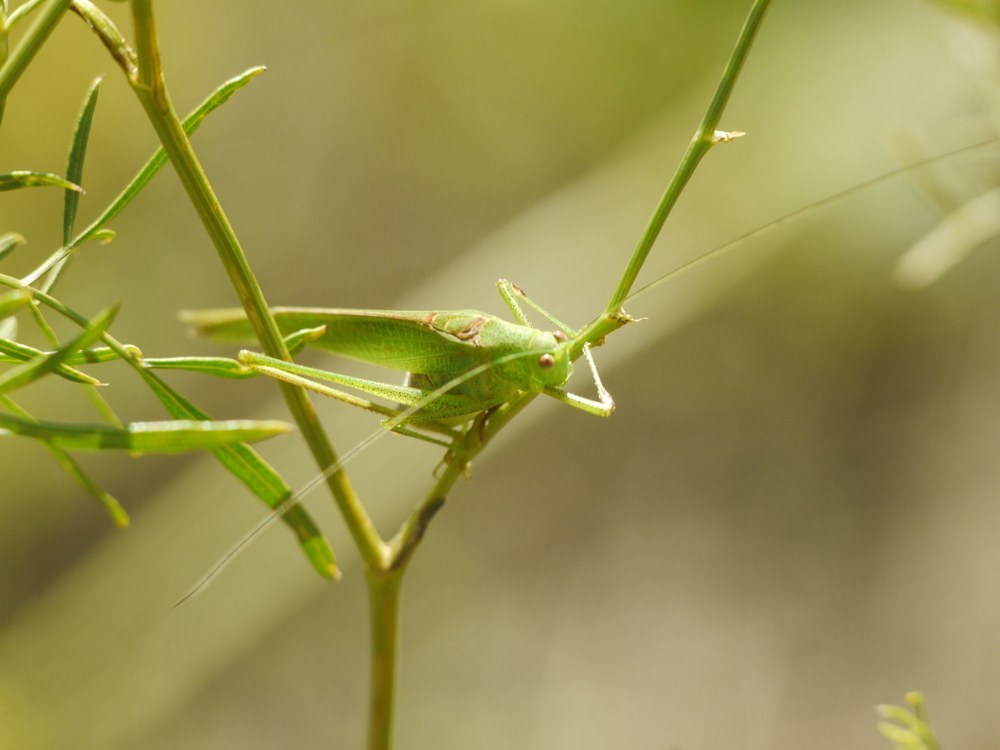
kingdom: Animalia
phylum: Arthropoda
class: Insecta
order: Orthoptera
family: Tettigoniidae
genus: Phaneroptera
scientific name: Phaneroptera nana
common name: Southern sickle bush-cricket
